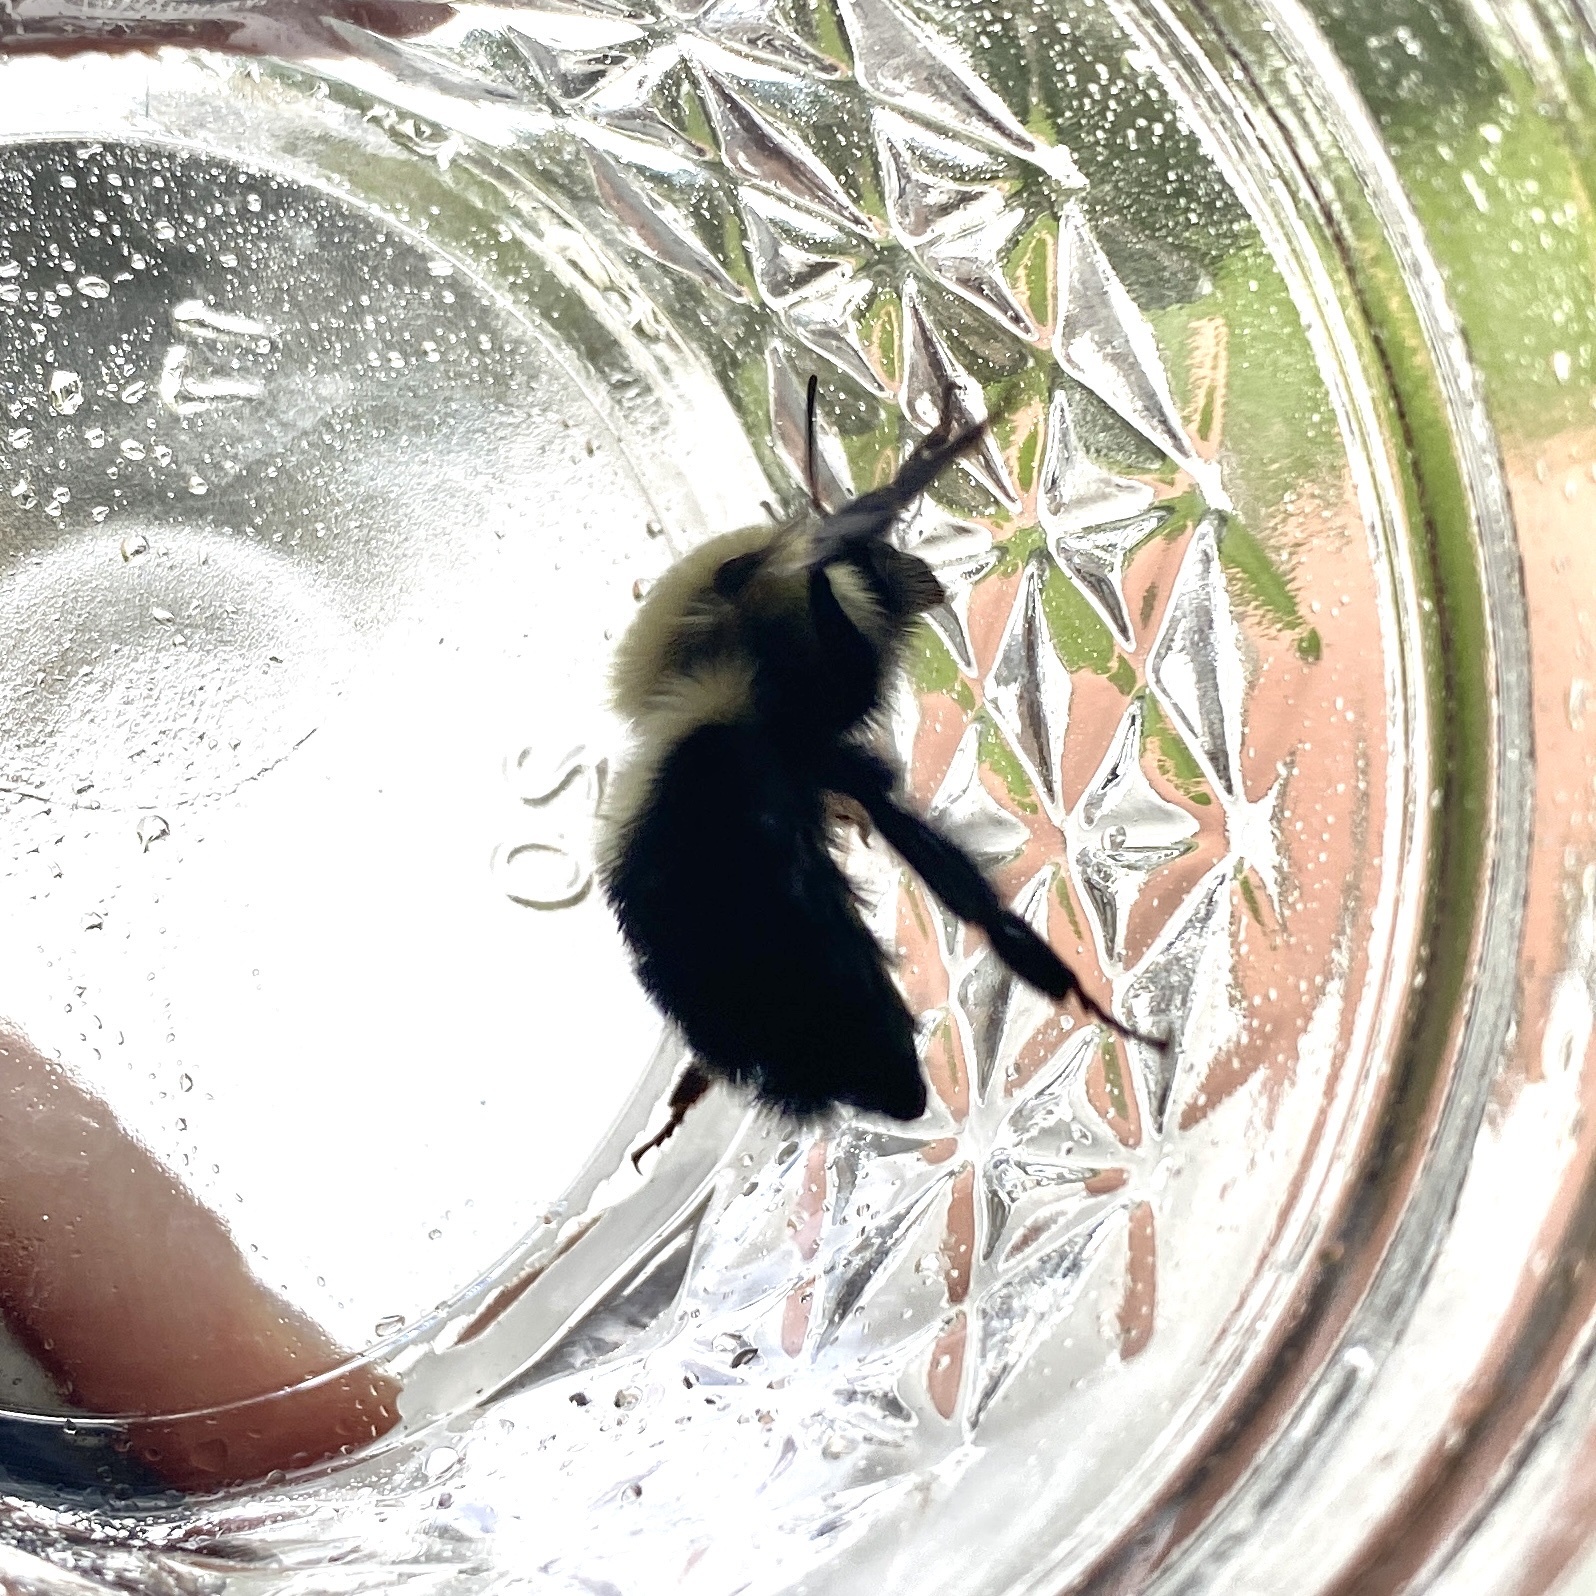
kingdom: Animalia
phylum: Arthropoda
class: Insecta
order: Hymenoptera
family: Apidae
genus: Bombus
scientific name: Bombus bimaculatus
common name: Two-spotted bumble bee
